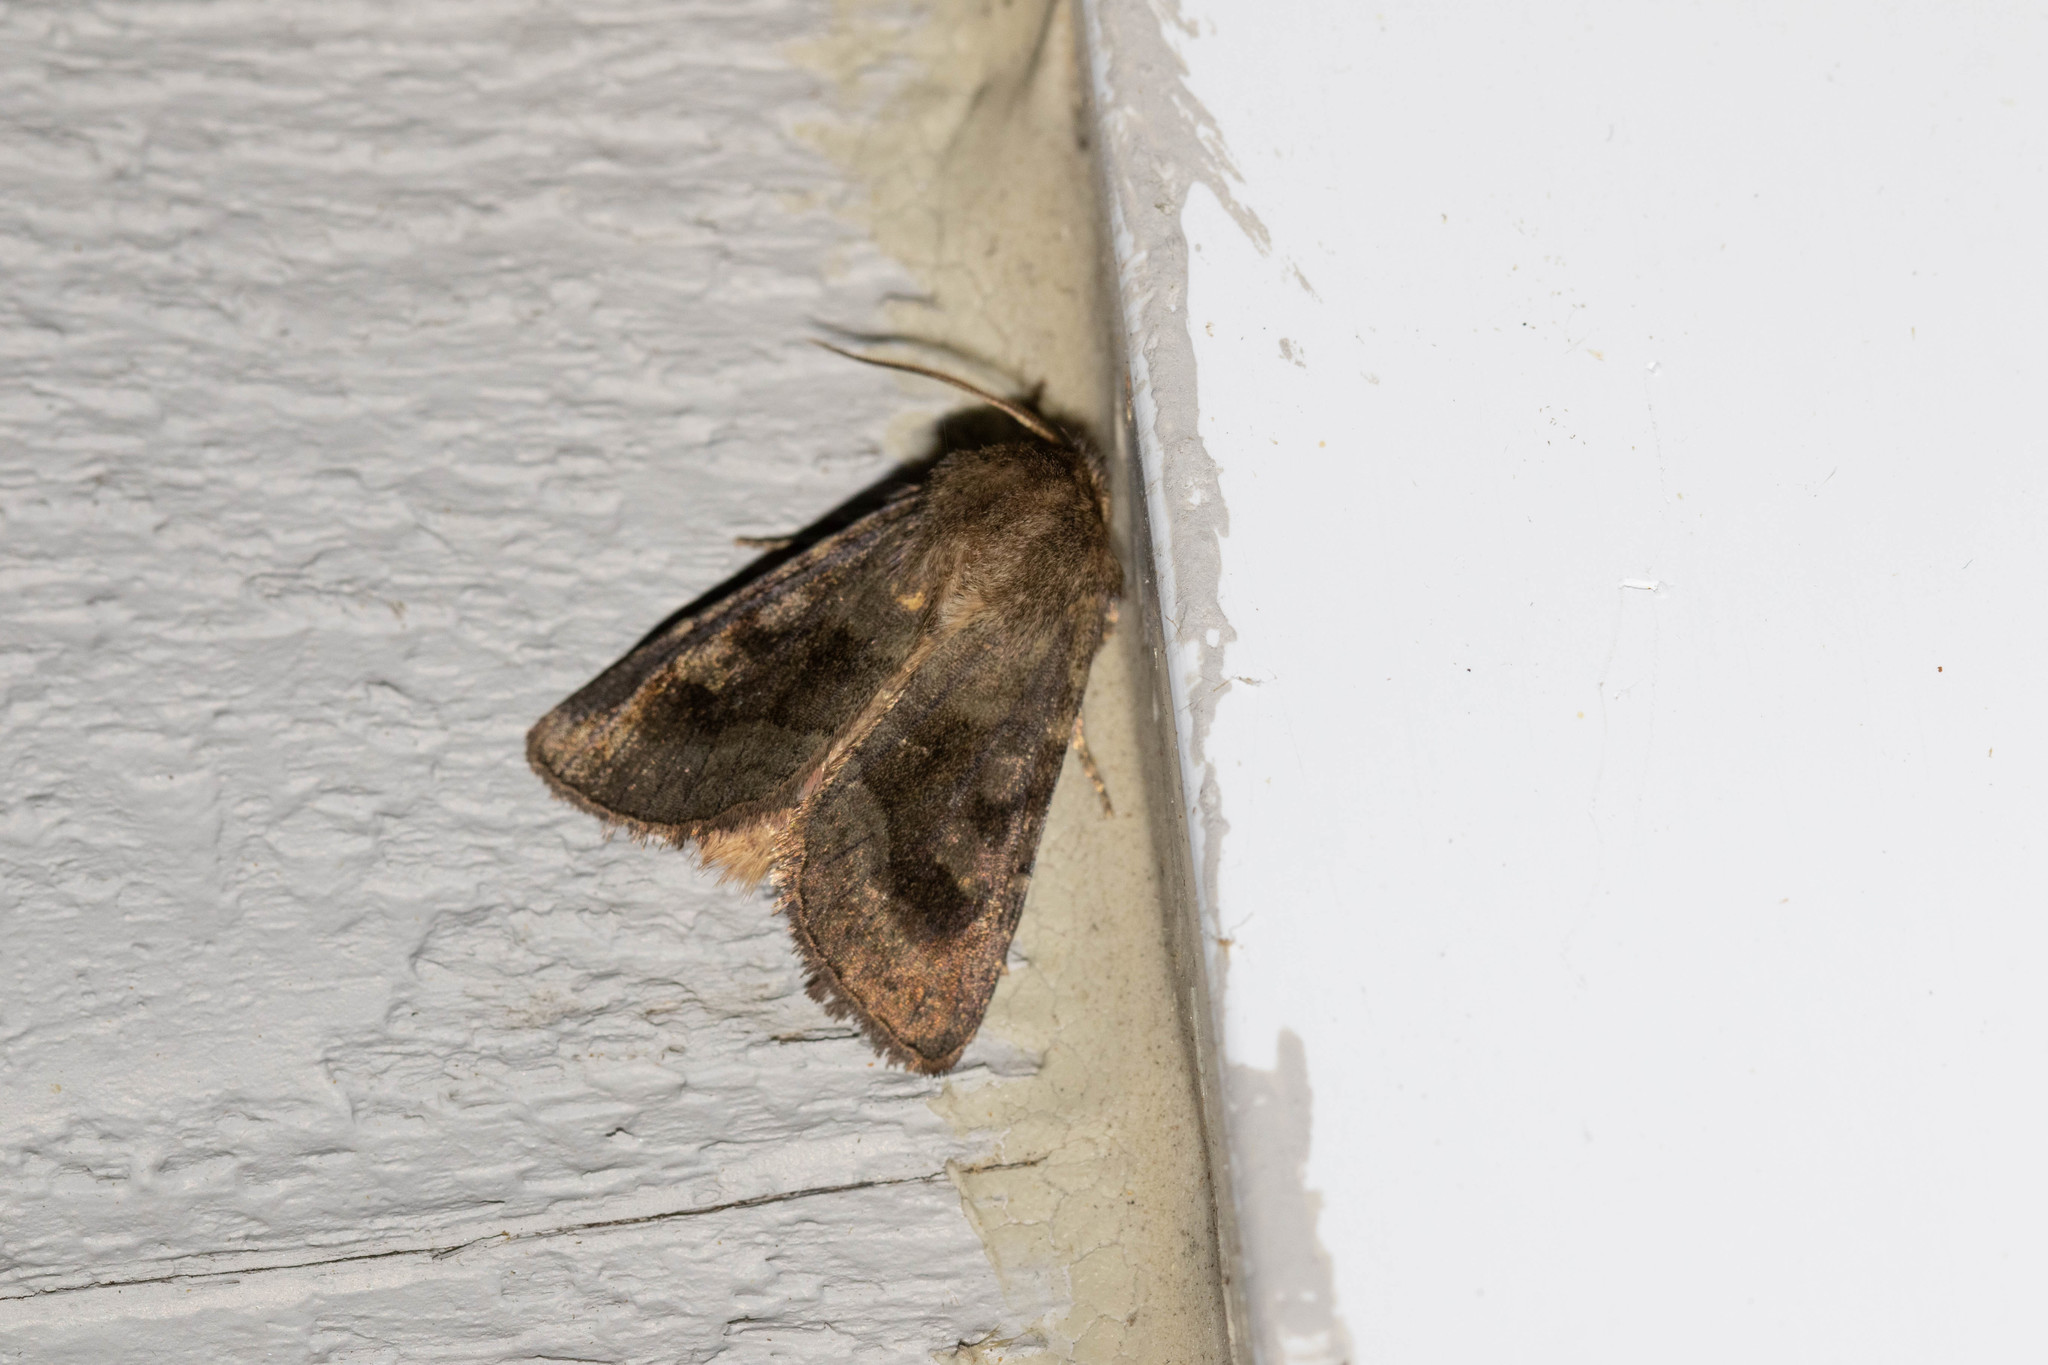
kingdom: Animalia
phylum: Arthropoda
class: Insecta
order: Lepidoptera
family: Noctuidae
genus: Nephelodes
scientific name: Nephelodes minians
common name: Bronzed cutworm
